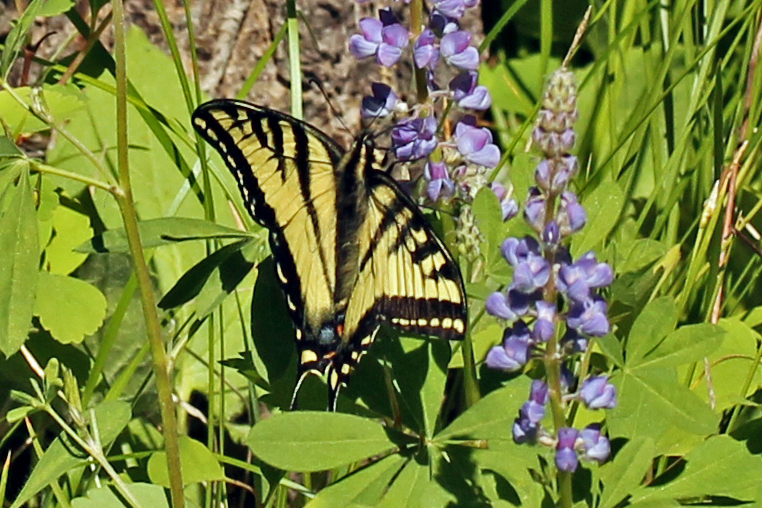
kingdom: Animalia
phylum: Arthropoda
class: Insecta
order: Lepidoptera
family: Papilionidae
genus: Papilio
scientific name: Papilio rutulus
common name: Western tiger swallowtail
